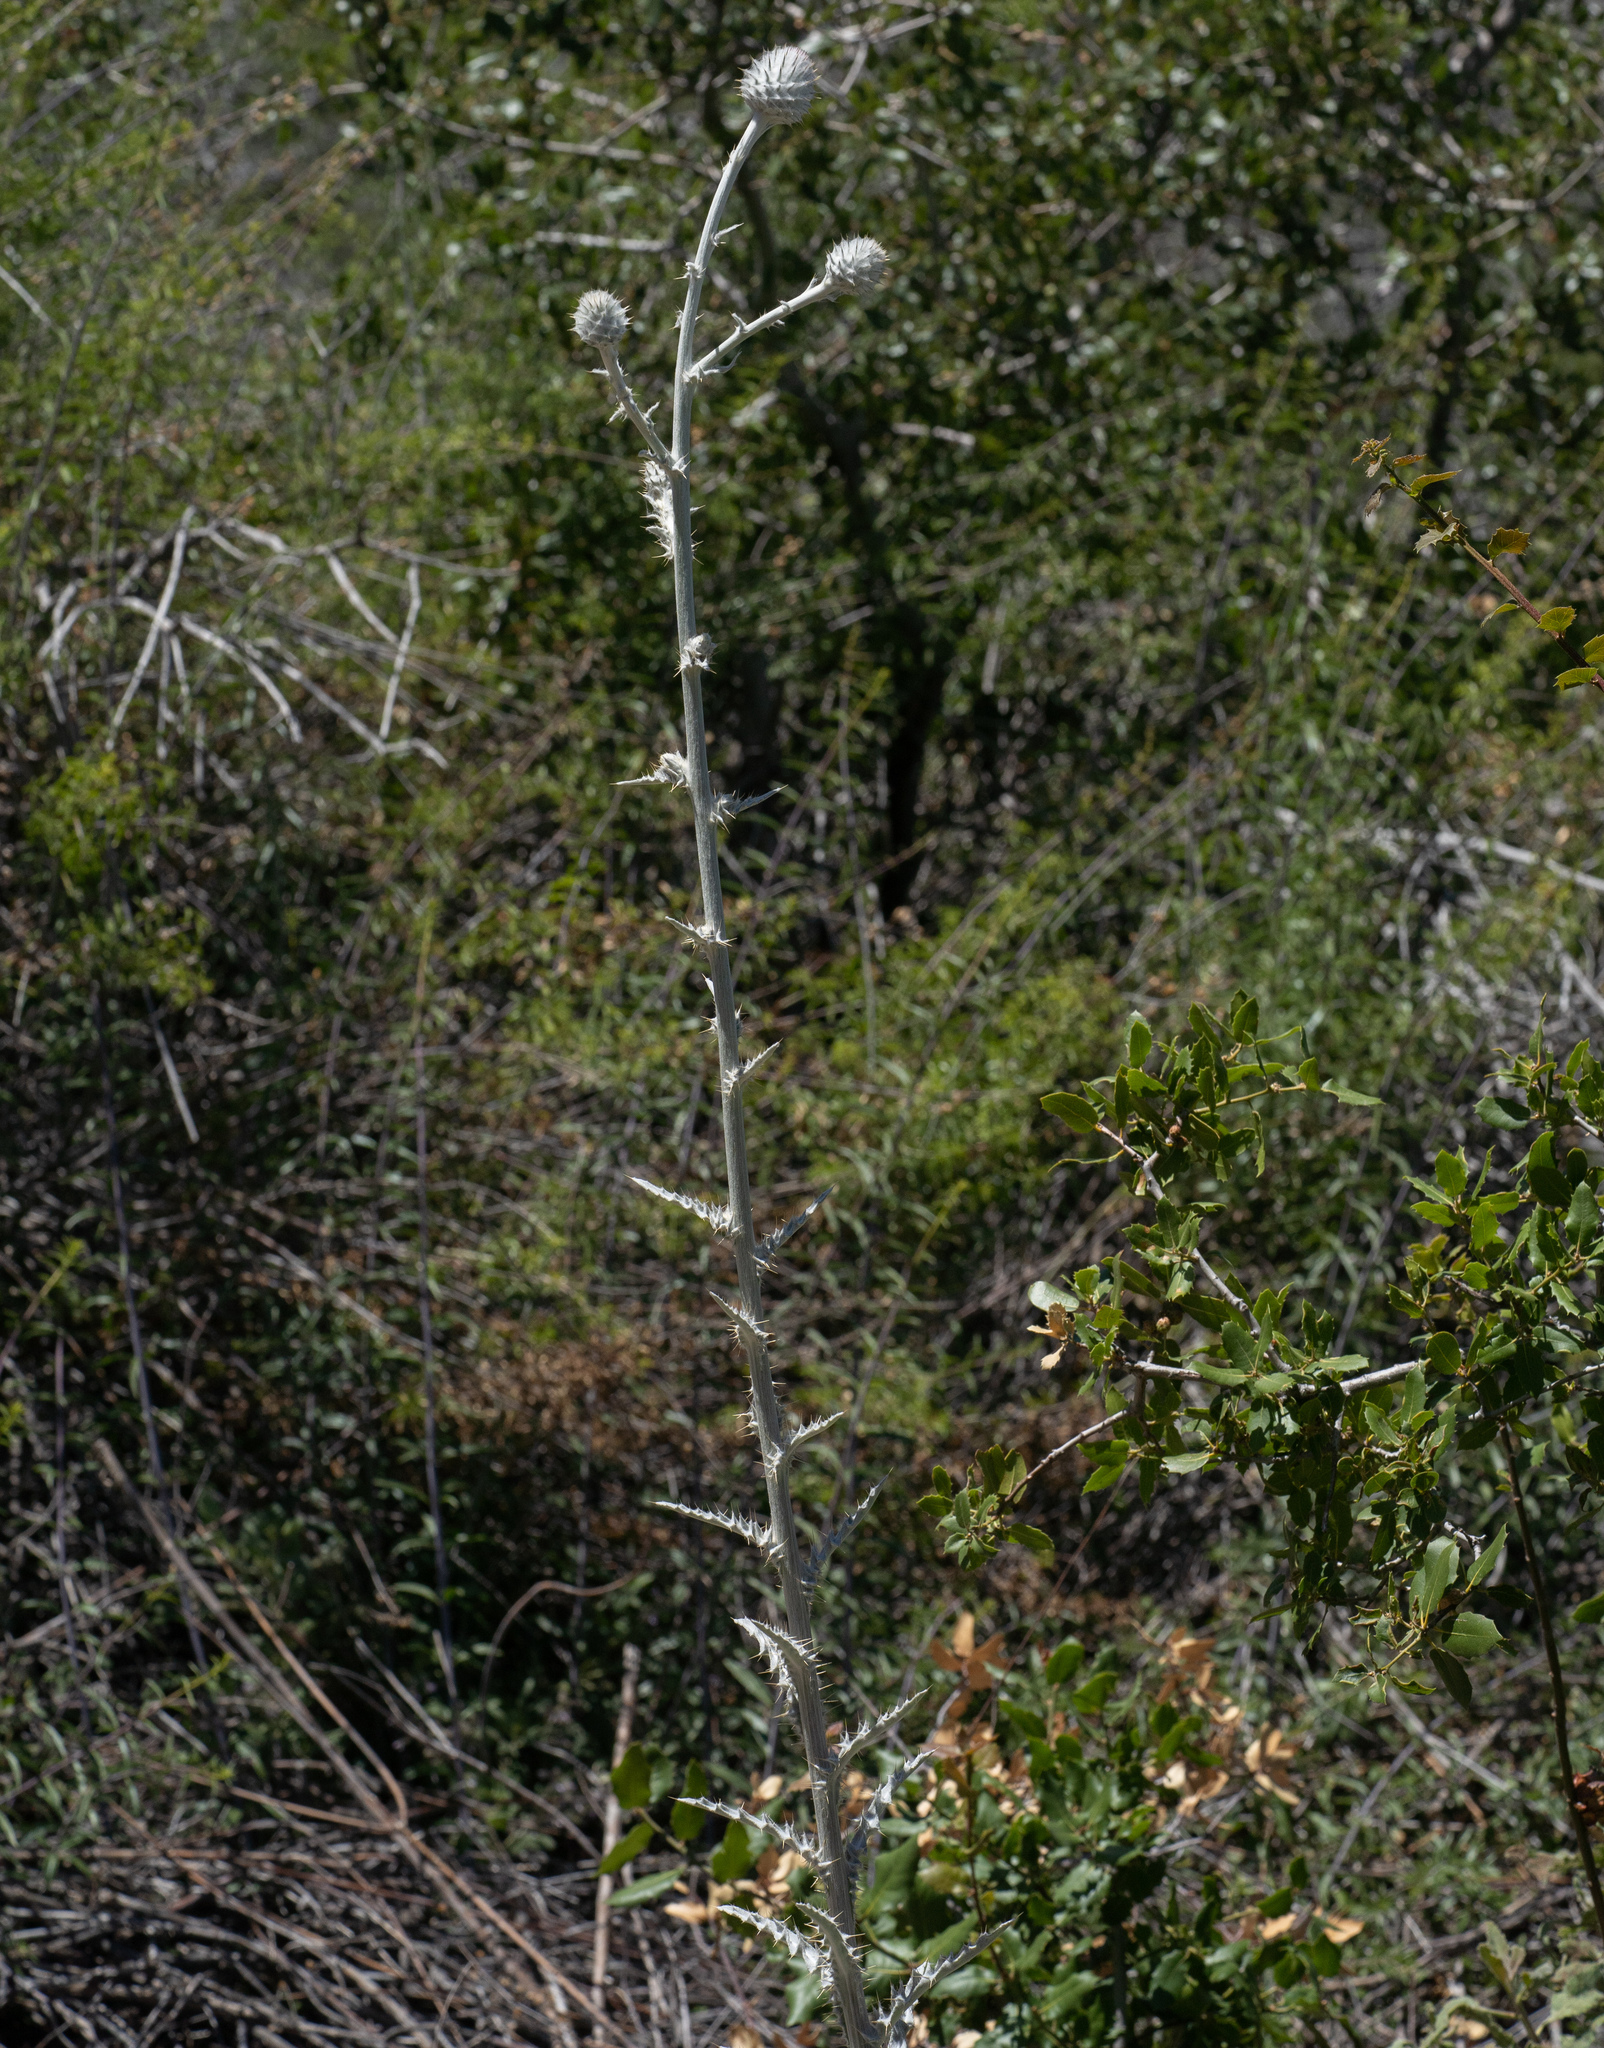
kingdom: Plantae
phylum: Tracheophyta
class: Magnoliopsida
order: Asterales
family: Asteraceae
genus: Cirsium
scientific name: Cirsium occidentale
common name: Western thistle
